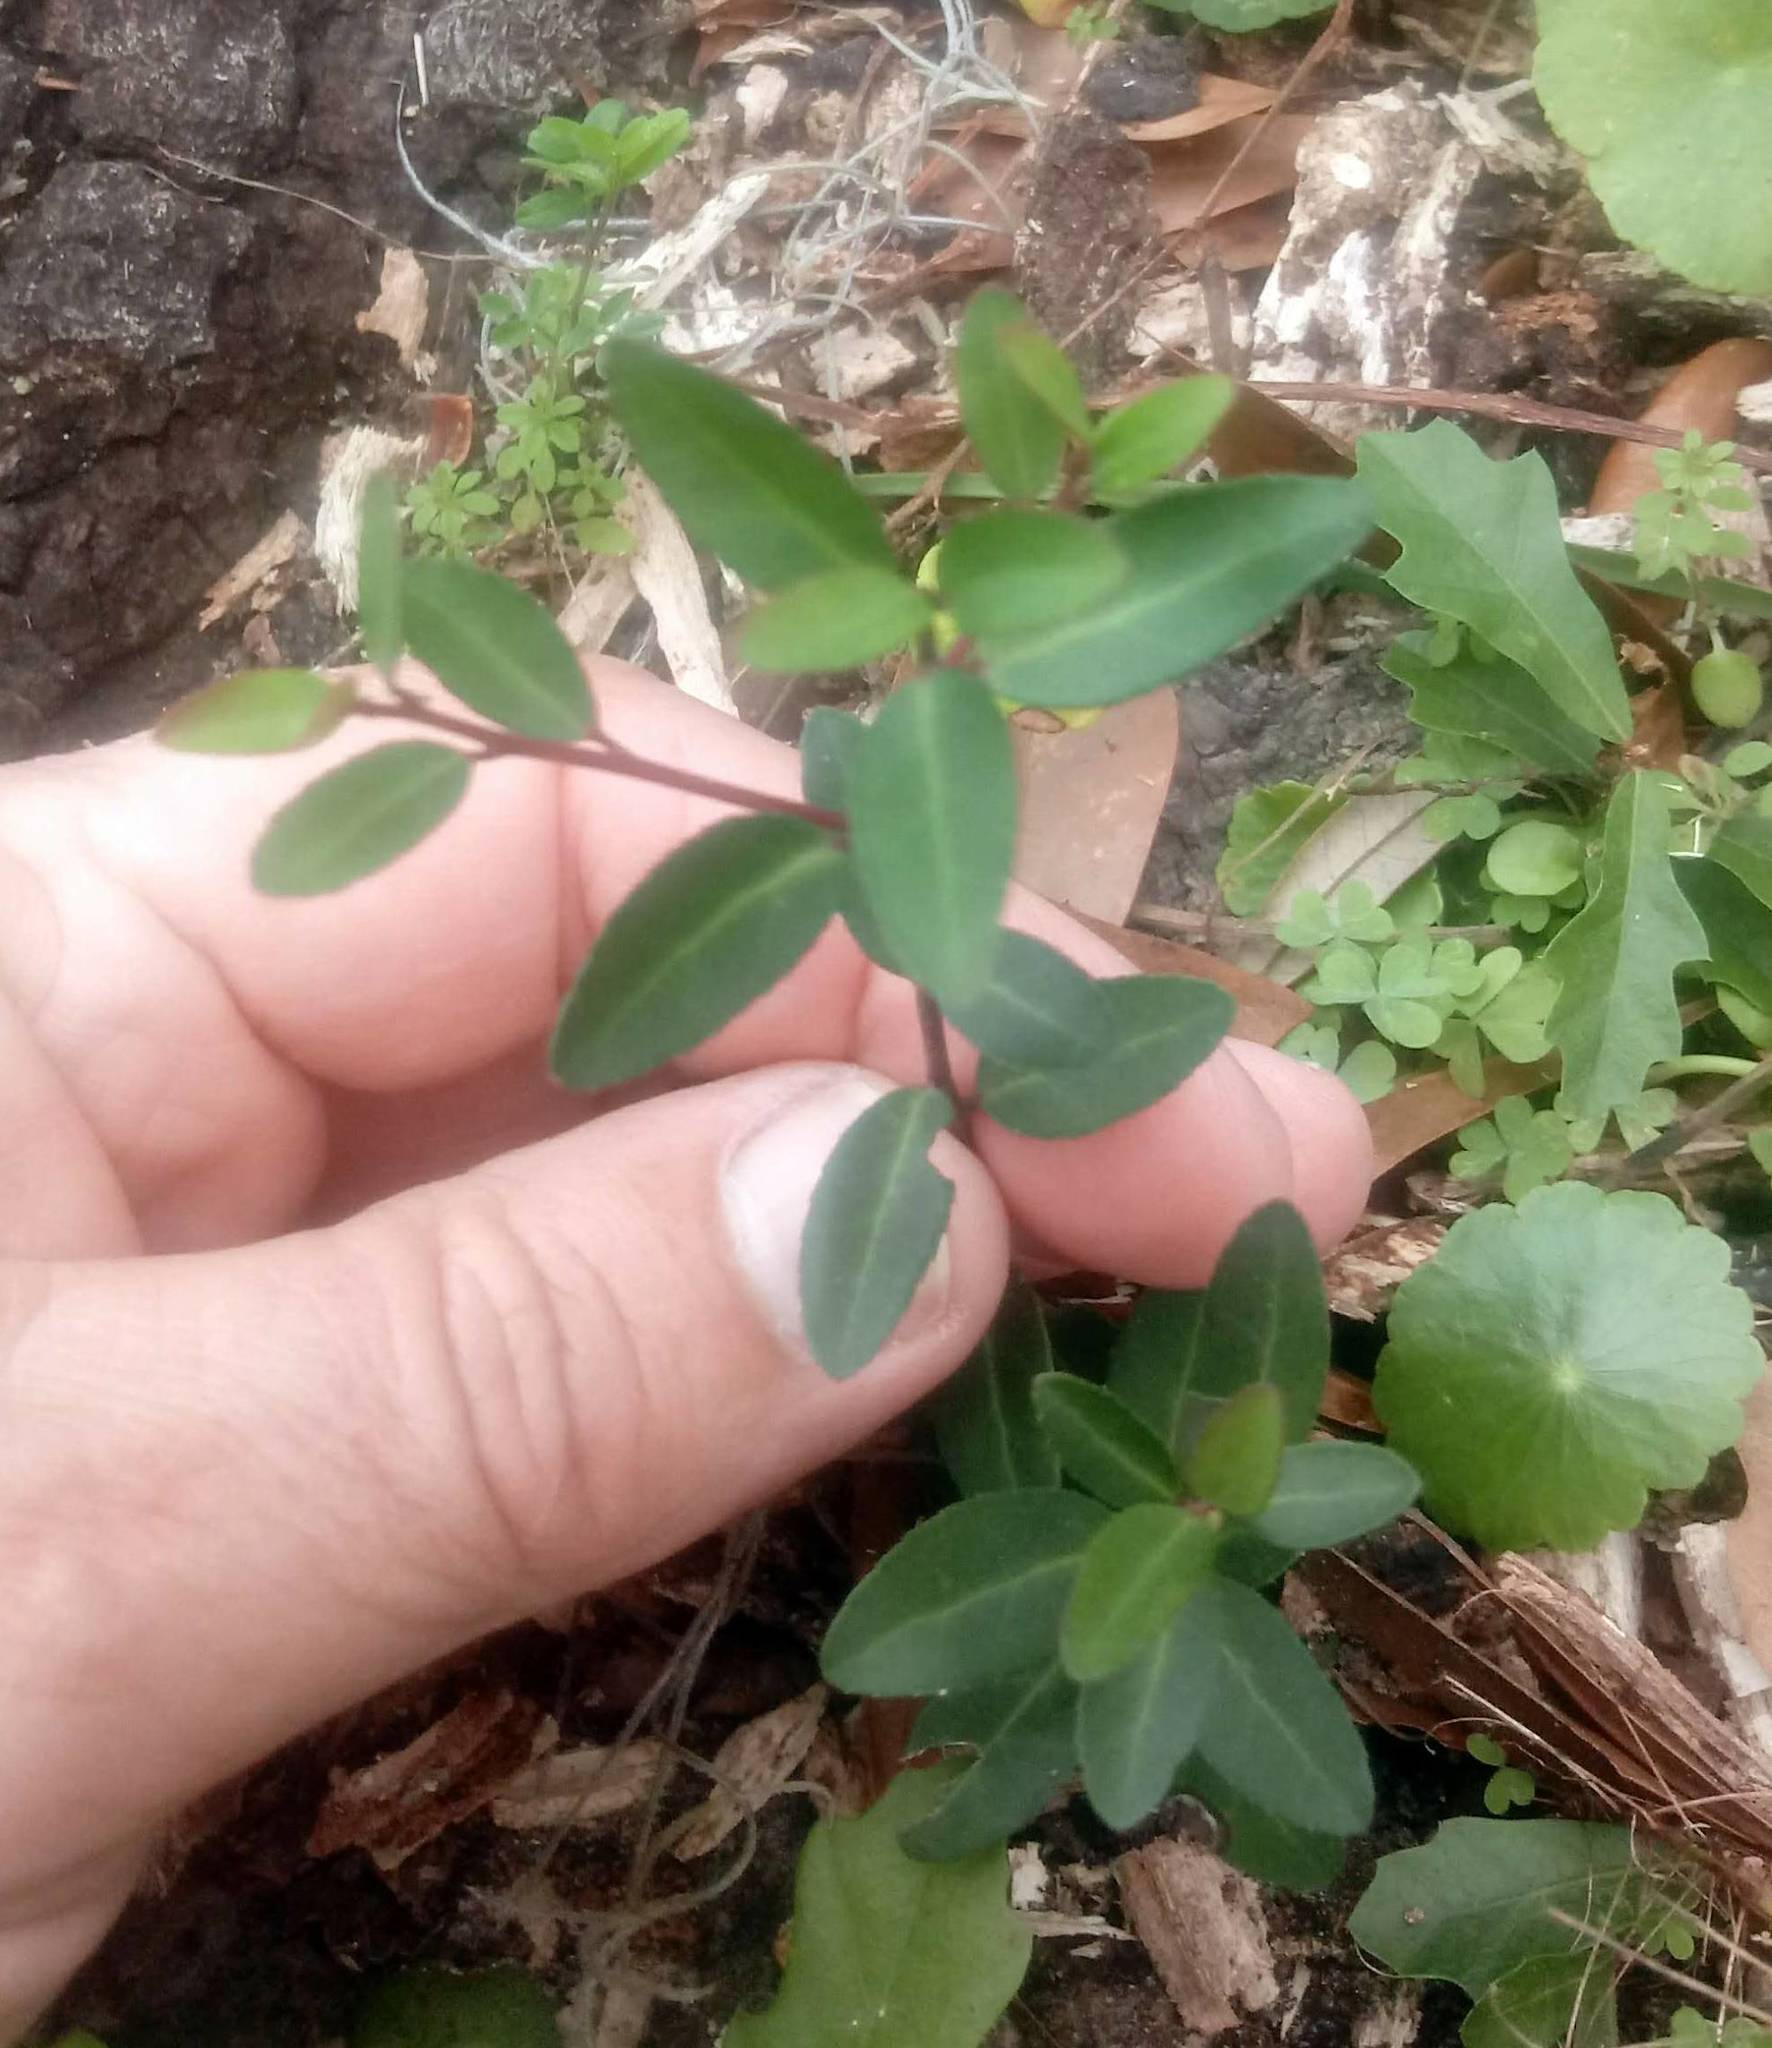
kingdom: Plantae
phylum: Tracheophyta
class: Magnoliopsida
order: Aquifoliales
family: Aquifoliaceae
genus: Ilex
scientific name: Ilex vomitoria
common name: Yaupon holly
